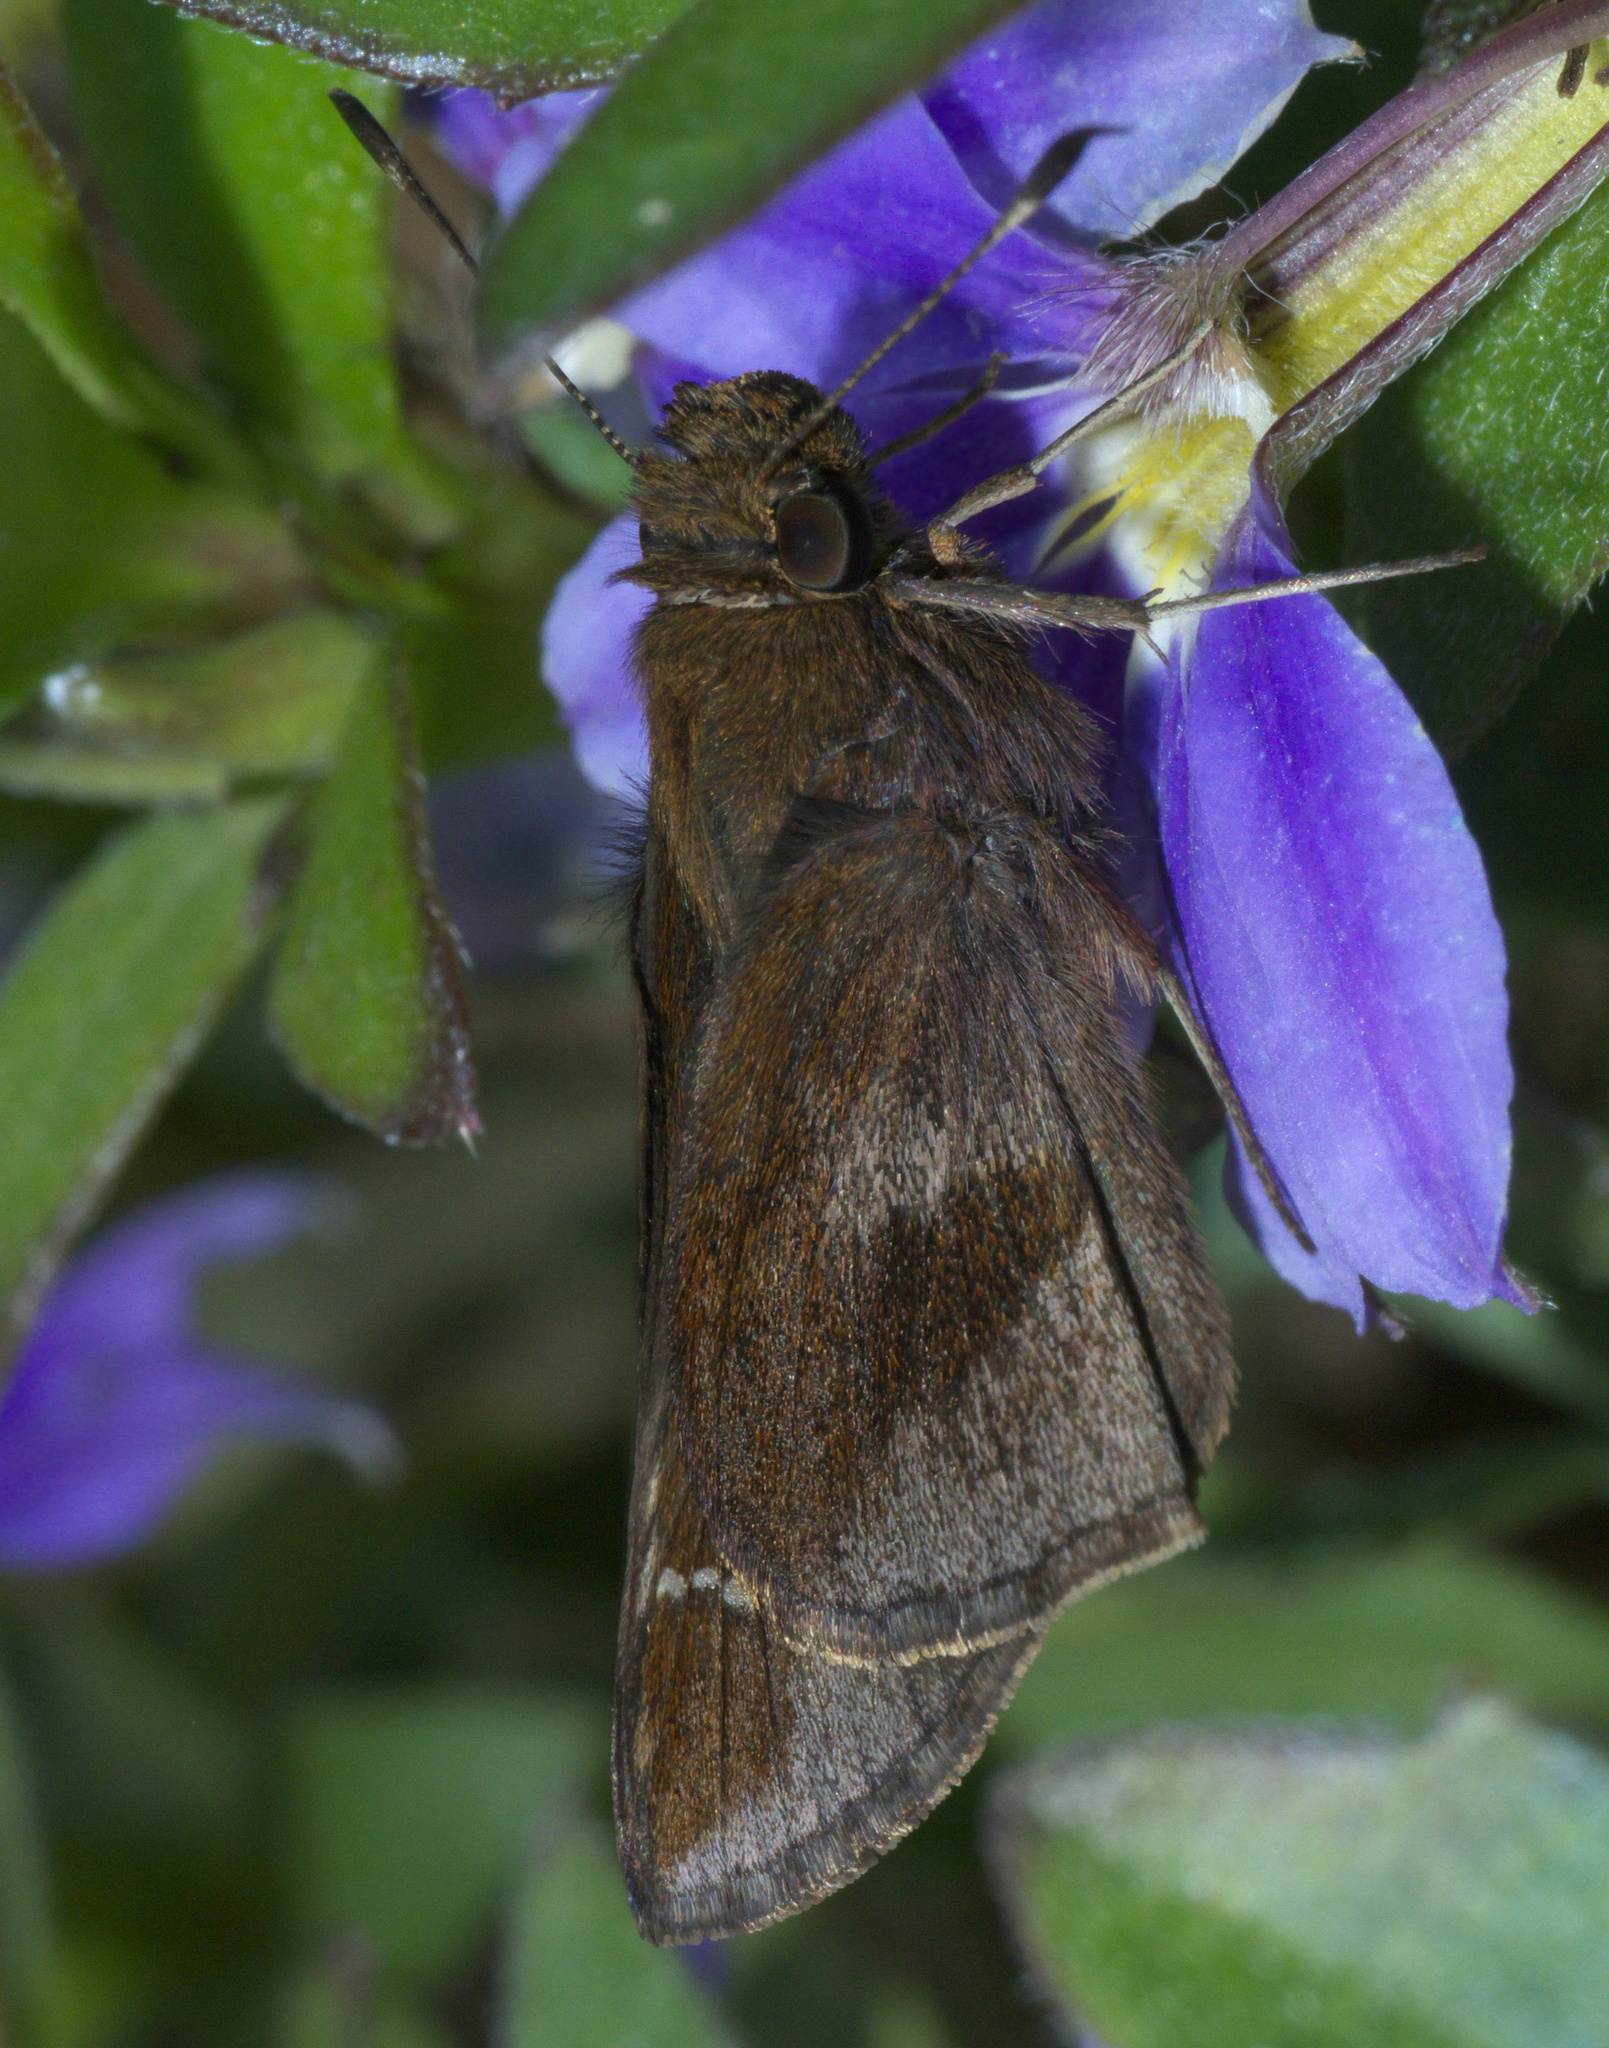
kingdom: Animalia
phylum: Arthropoda
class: Insecta
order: Lepidoptera
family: Hesperiidae
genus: Lerema
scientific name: Lerema accius
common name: Clouded skipper
